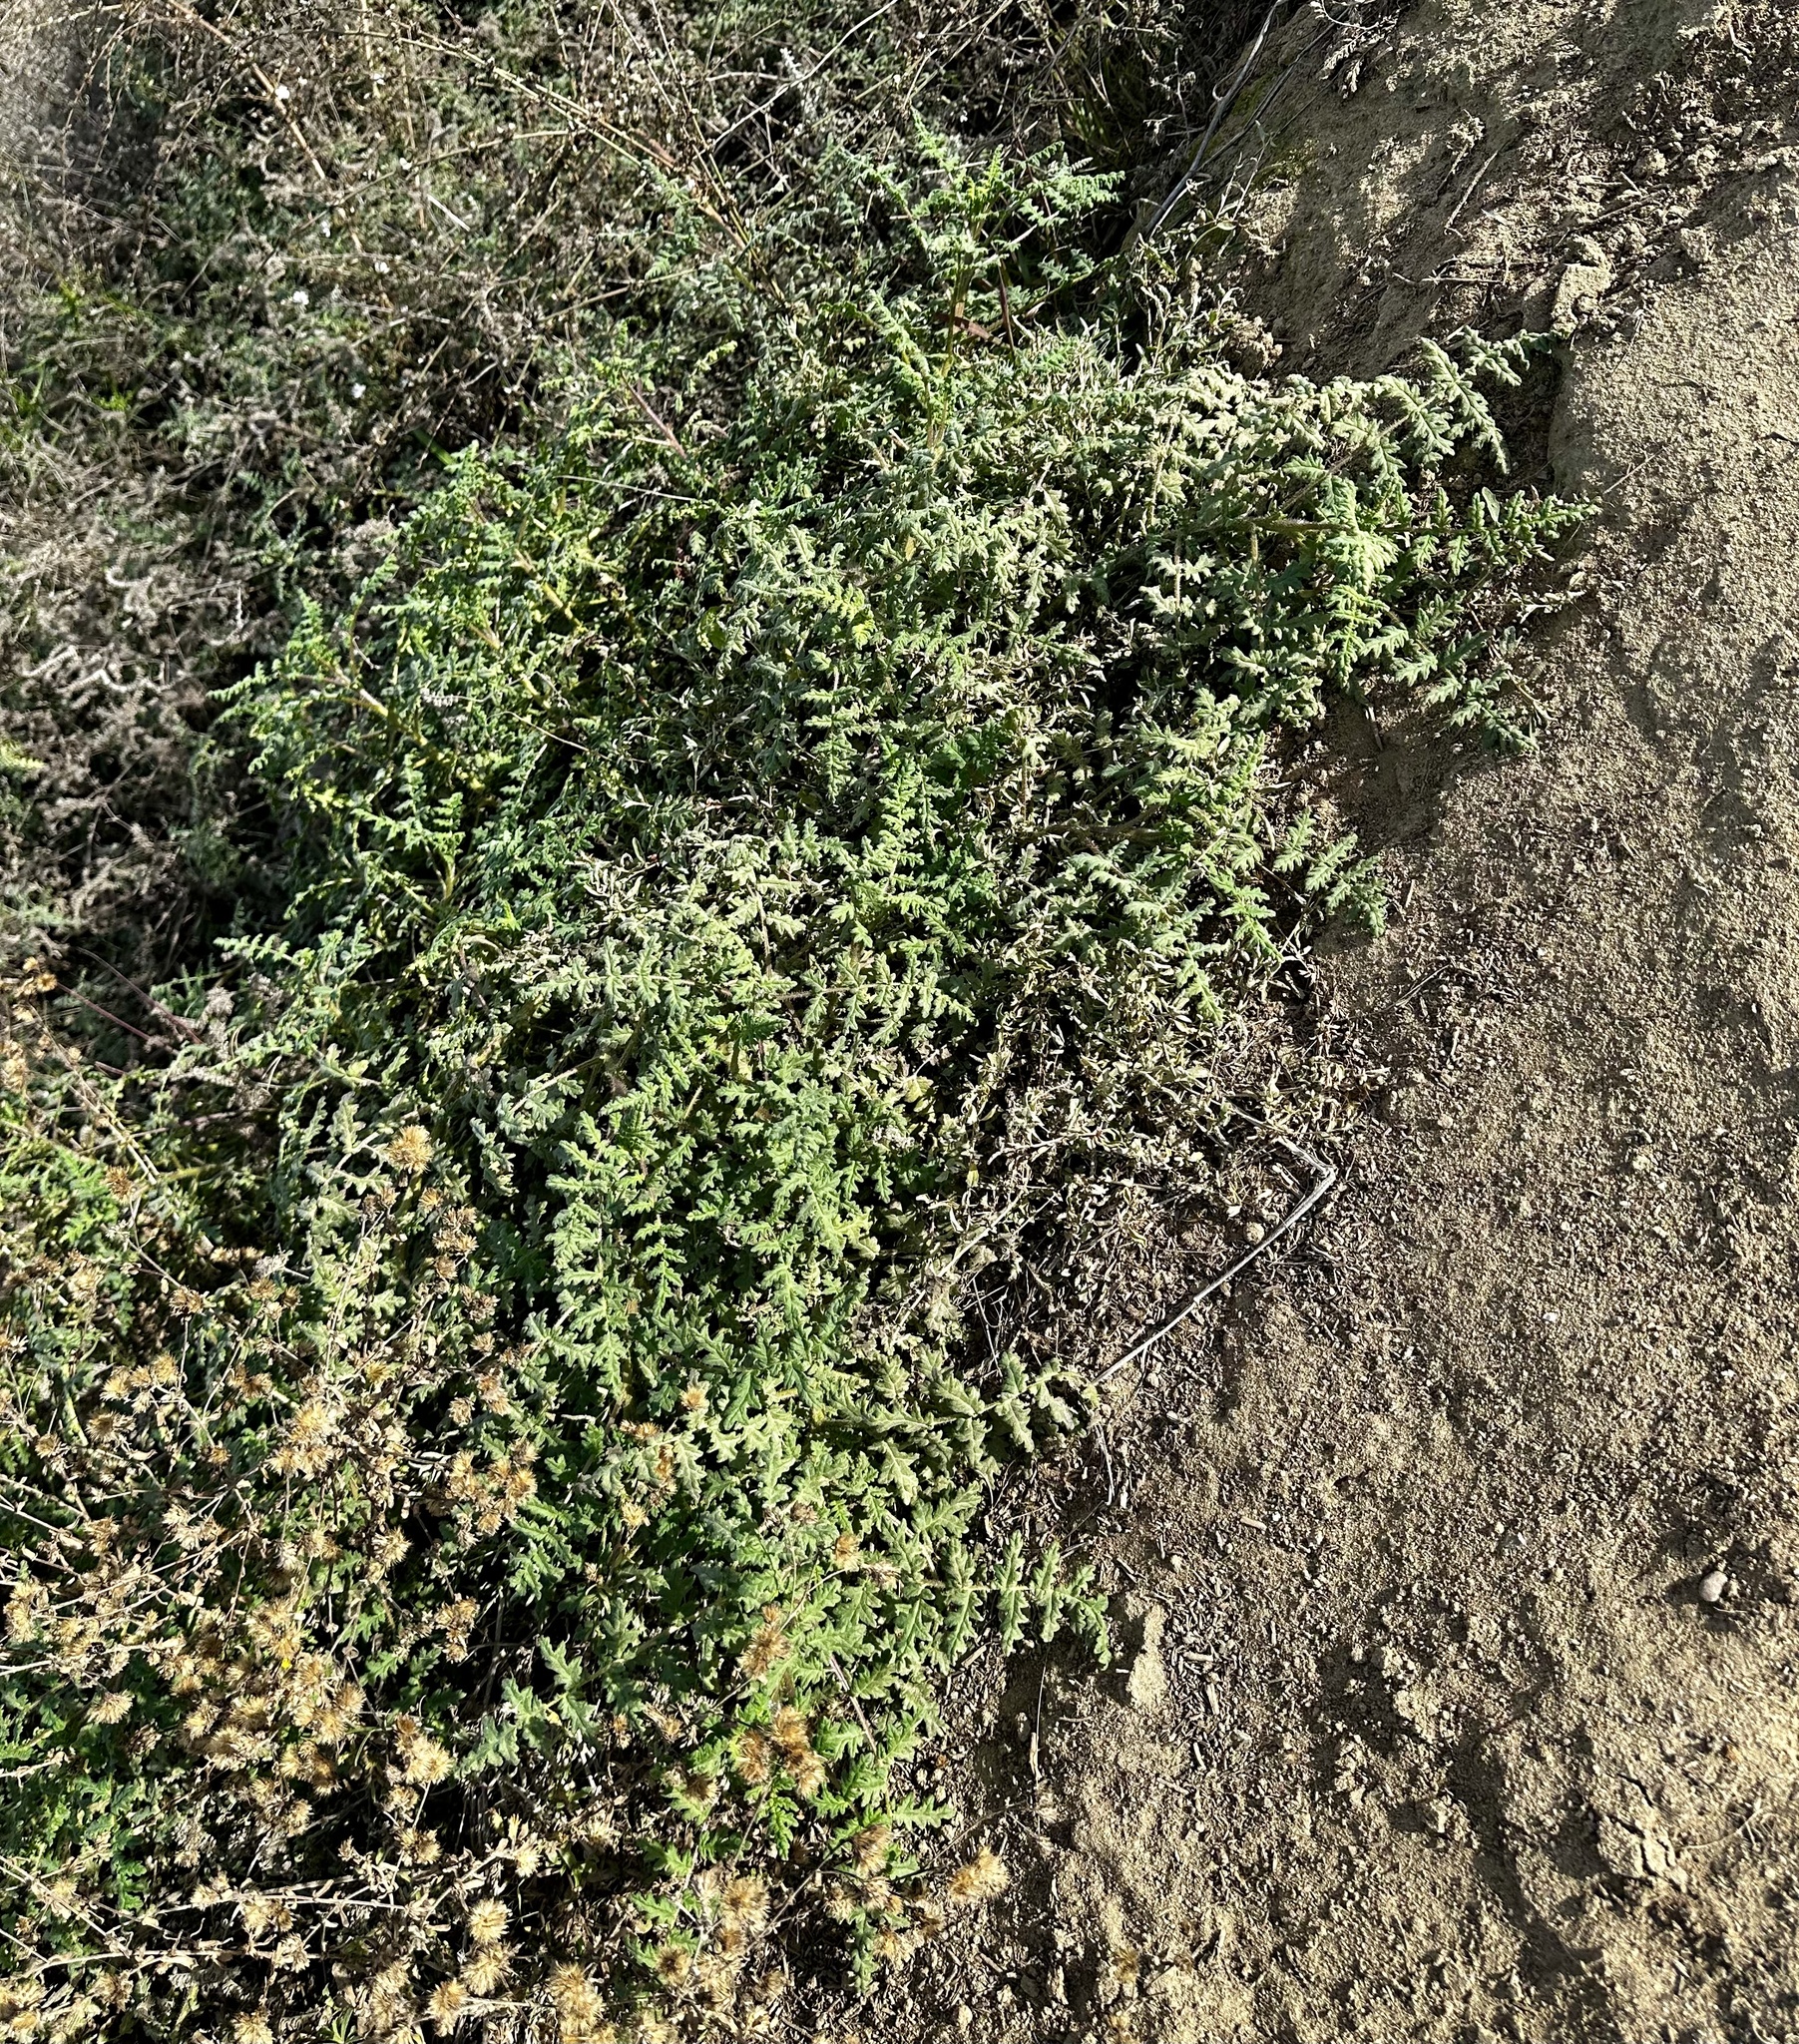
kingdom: Plantae
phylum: Tracheophyta
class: Magnoliopsida
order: Boraginales
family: Hydrophyllaceae
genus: Phacelia
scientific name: Phacelia ramosissima
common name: Branching phacelia
